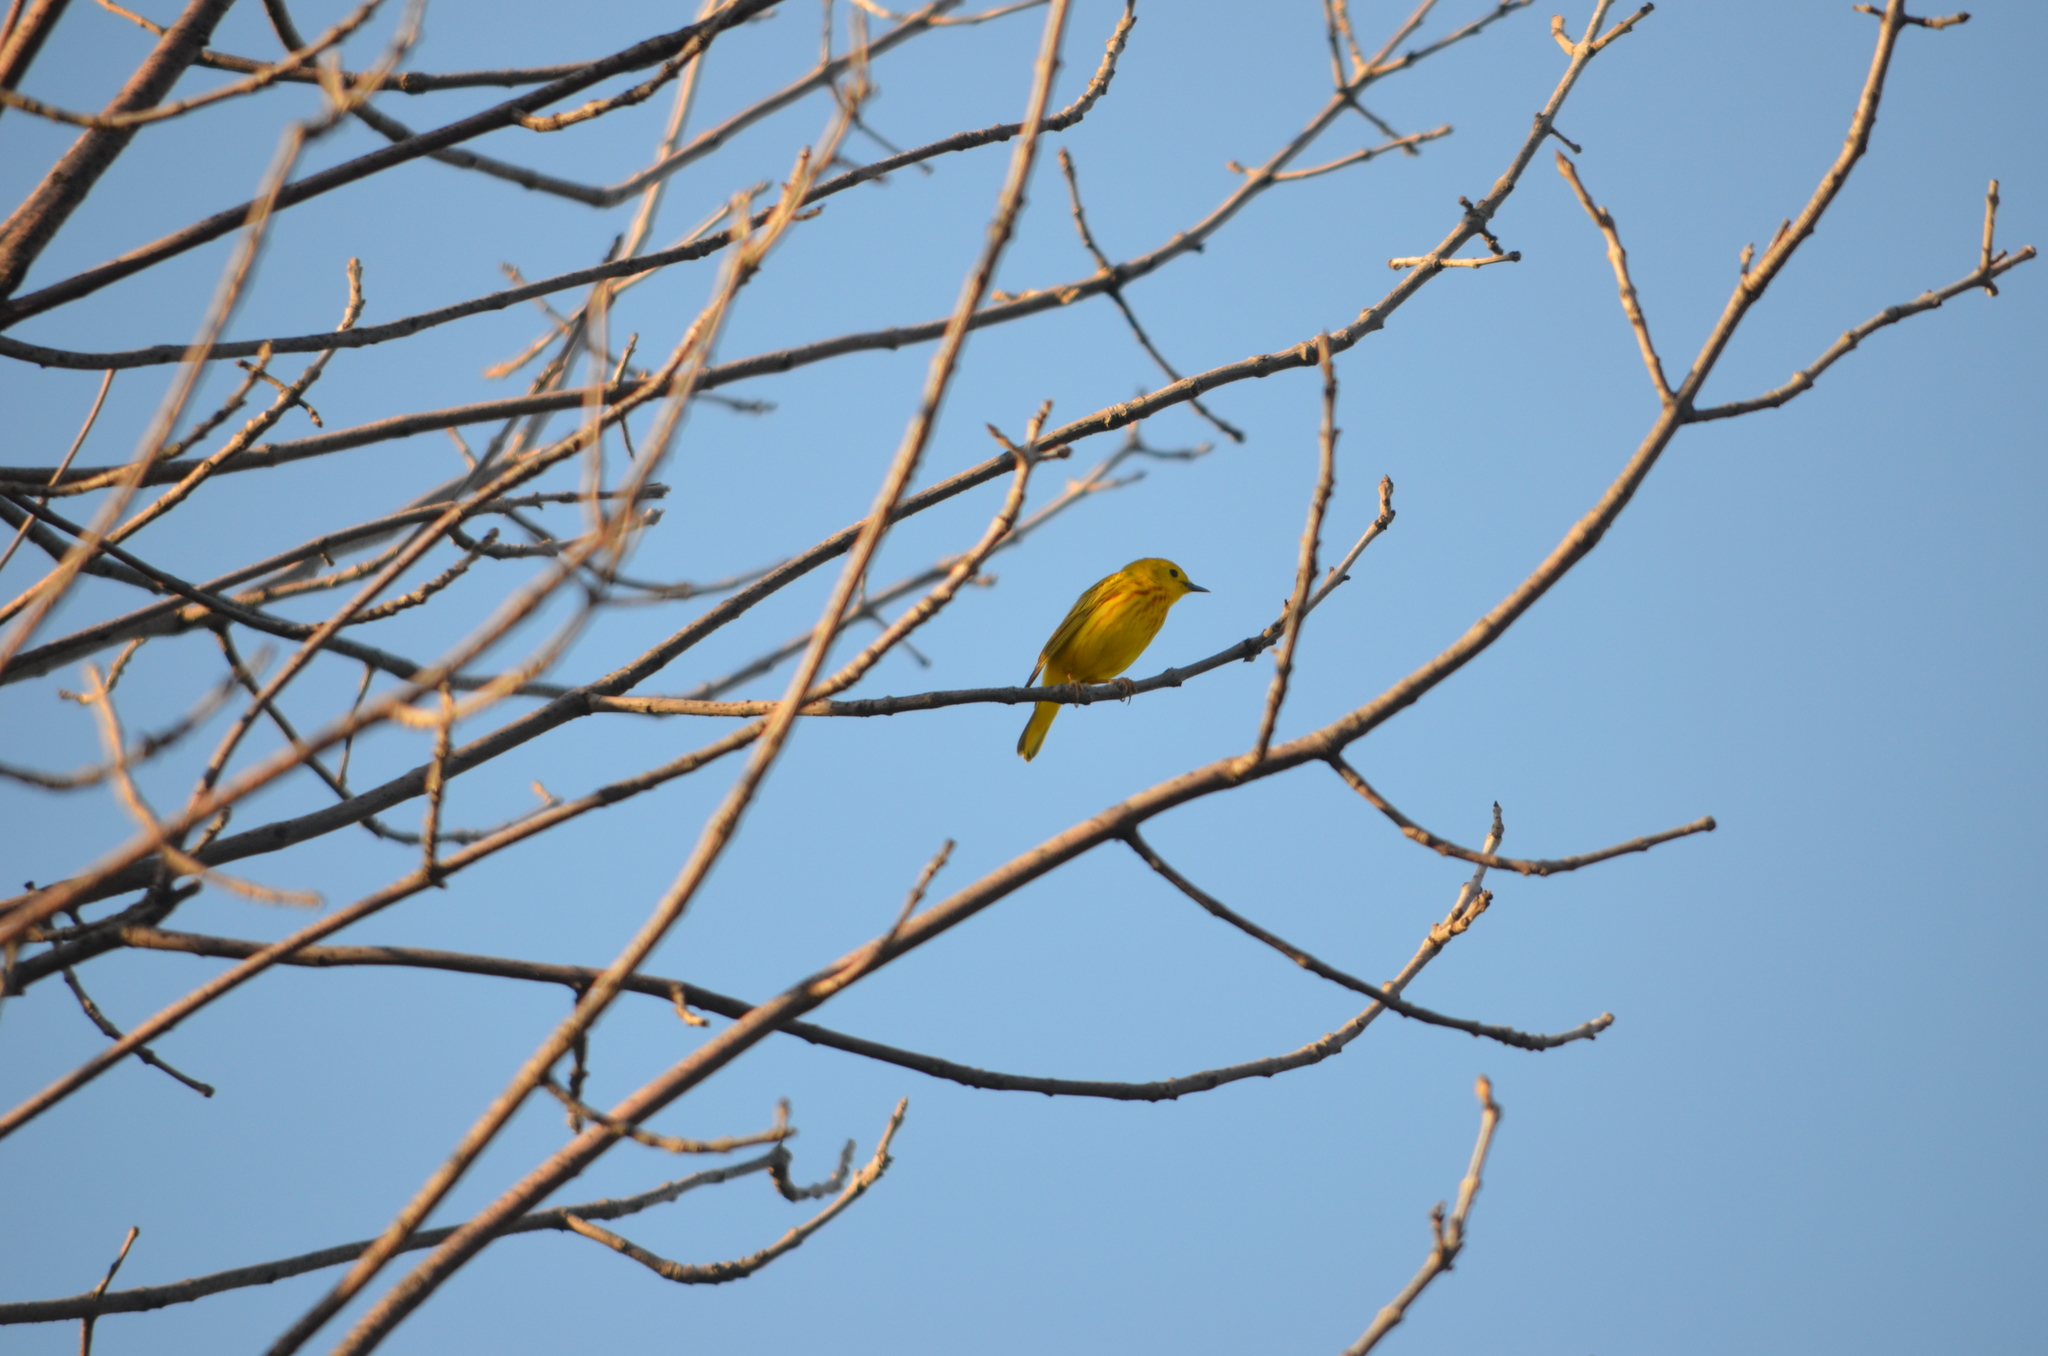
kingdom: Animalia
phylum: Chordata
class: Aves
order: Passeriformes
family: Parulidae
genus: Setophaga
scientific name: Setophaga petechia
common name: Yellow warbler
